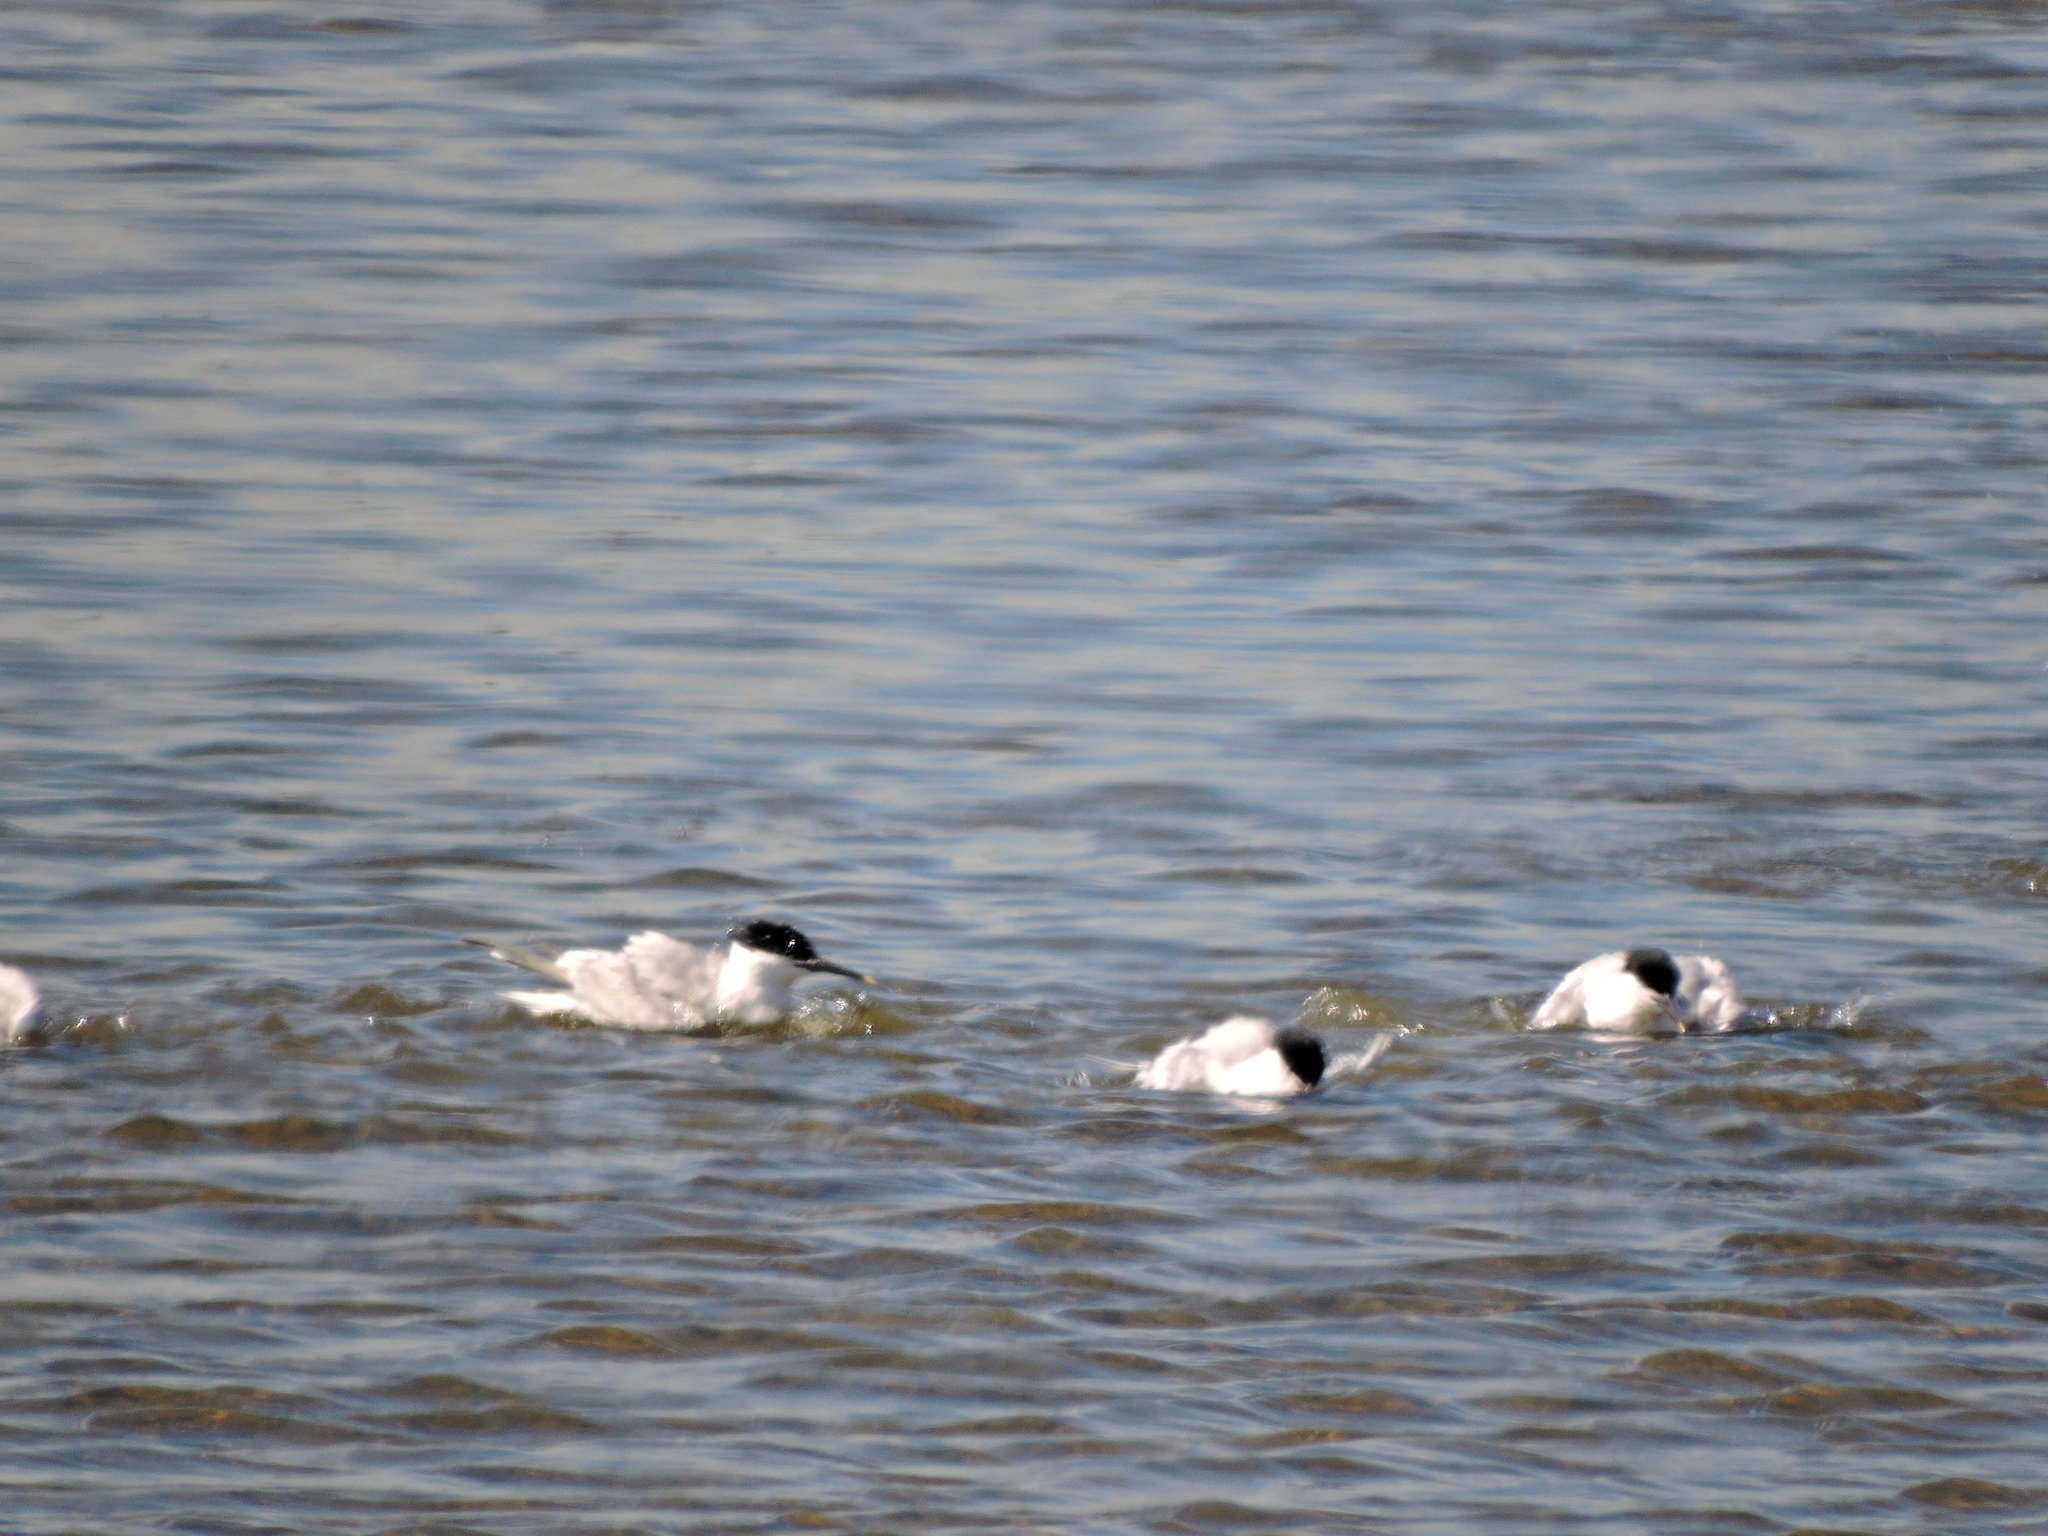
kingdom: Animalia
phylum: Chordata
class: Aves
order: Charadriiformes
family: Laridae
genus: Thalasseus
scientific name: Thalasseus sandvicensis
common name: Sandwich tern
